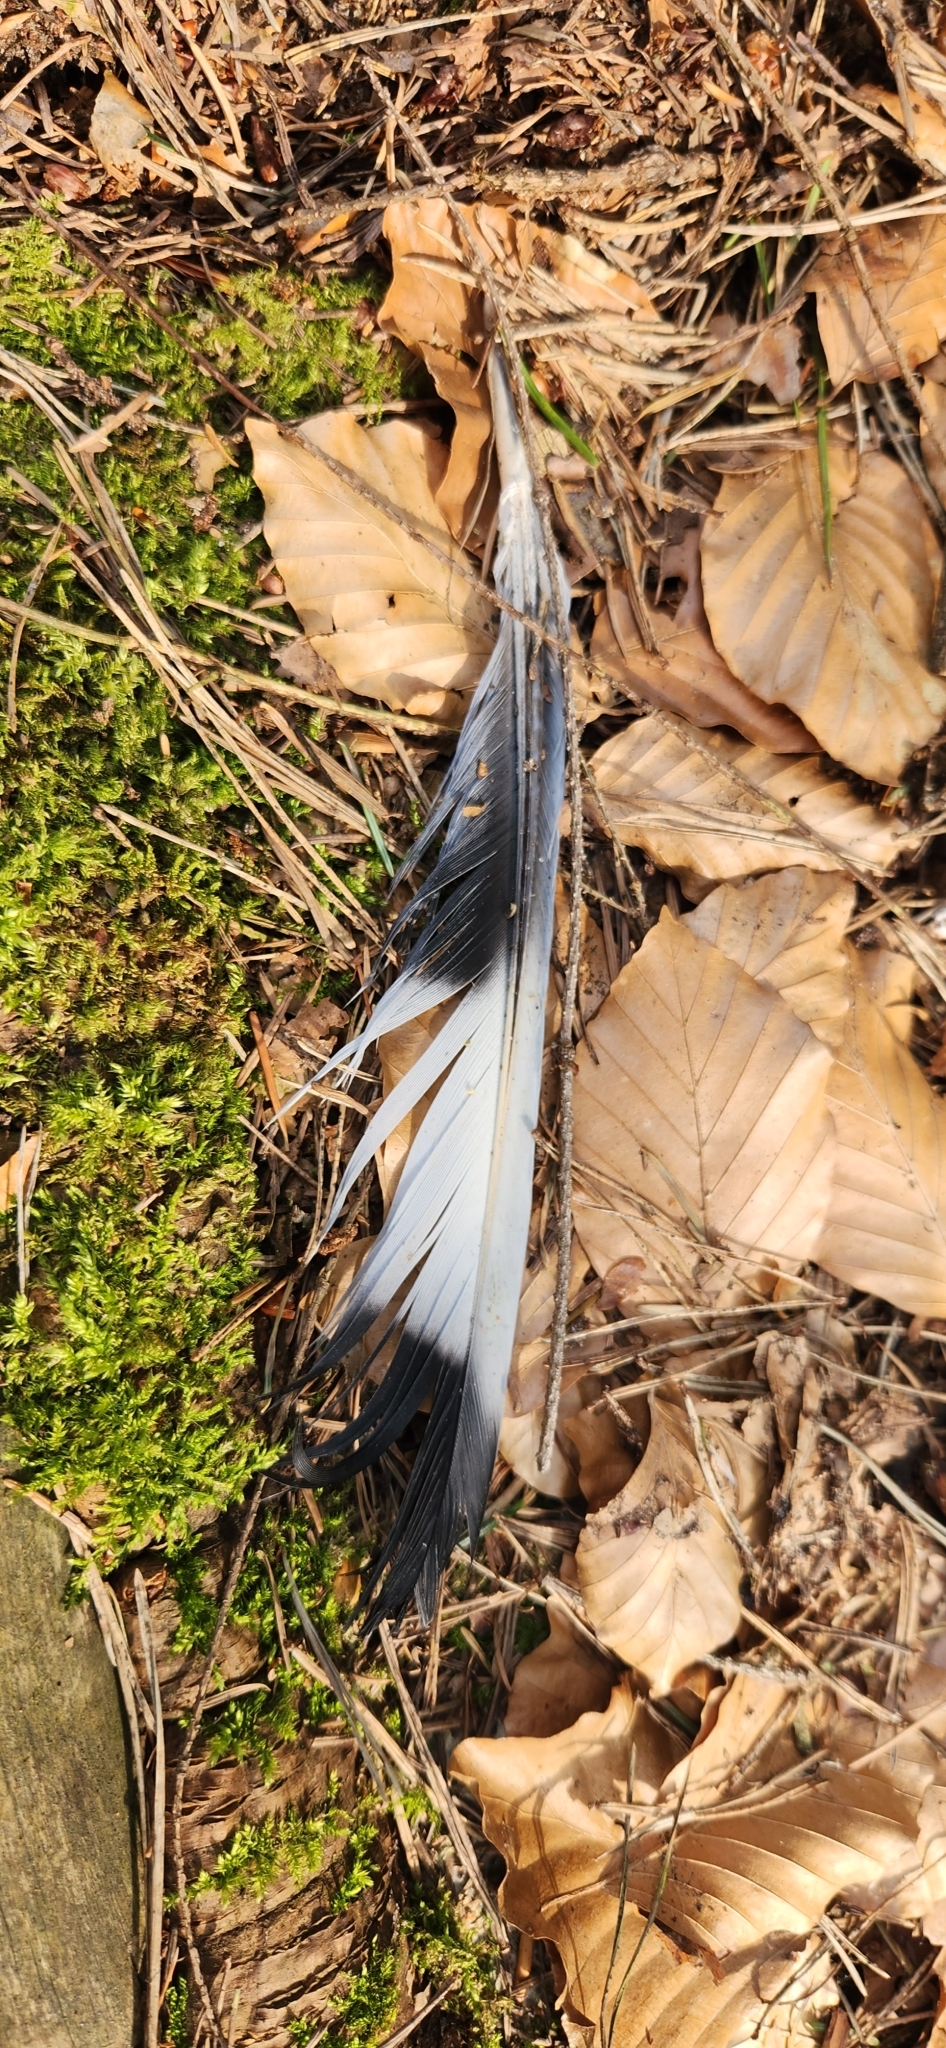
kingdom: Animalia
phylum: Chordata
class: Aves
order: Columbiformes
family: Columbidae
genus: Columba
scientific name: Columba palumbus
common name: Common wood pigeon
